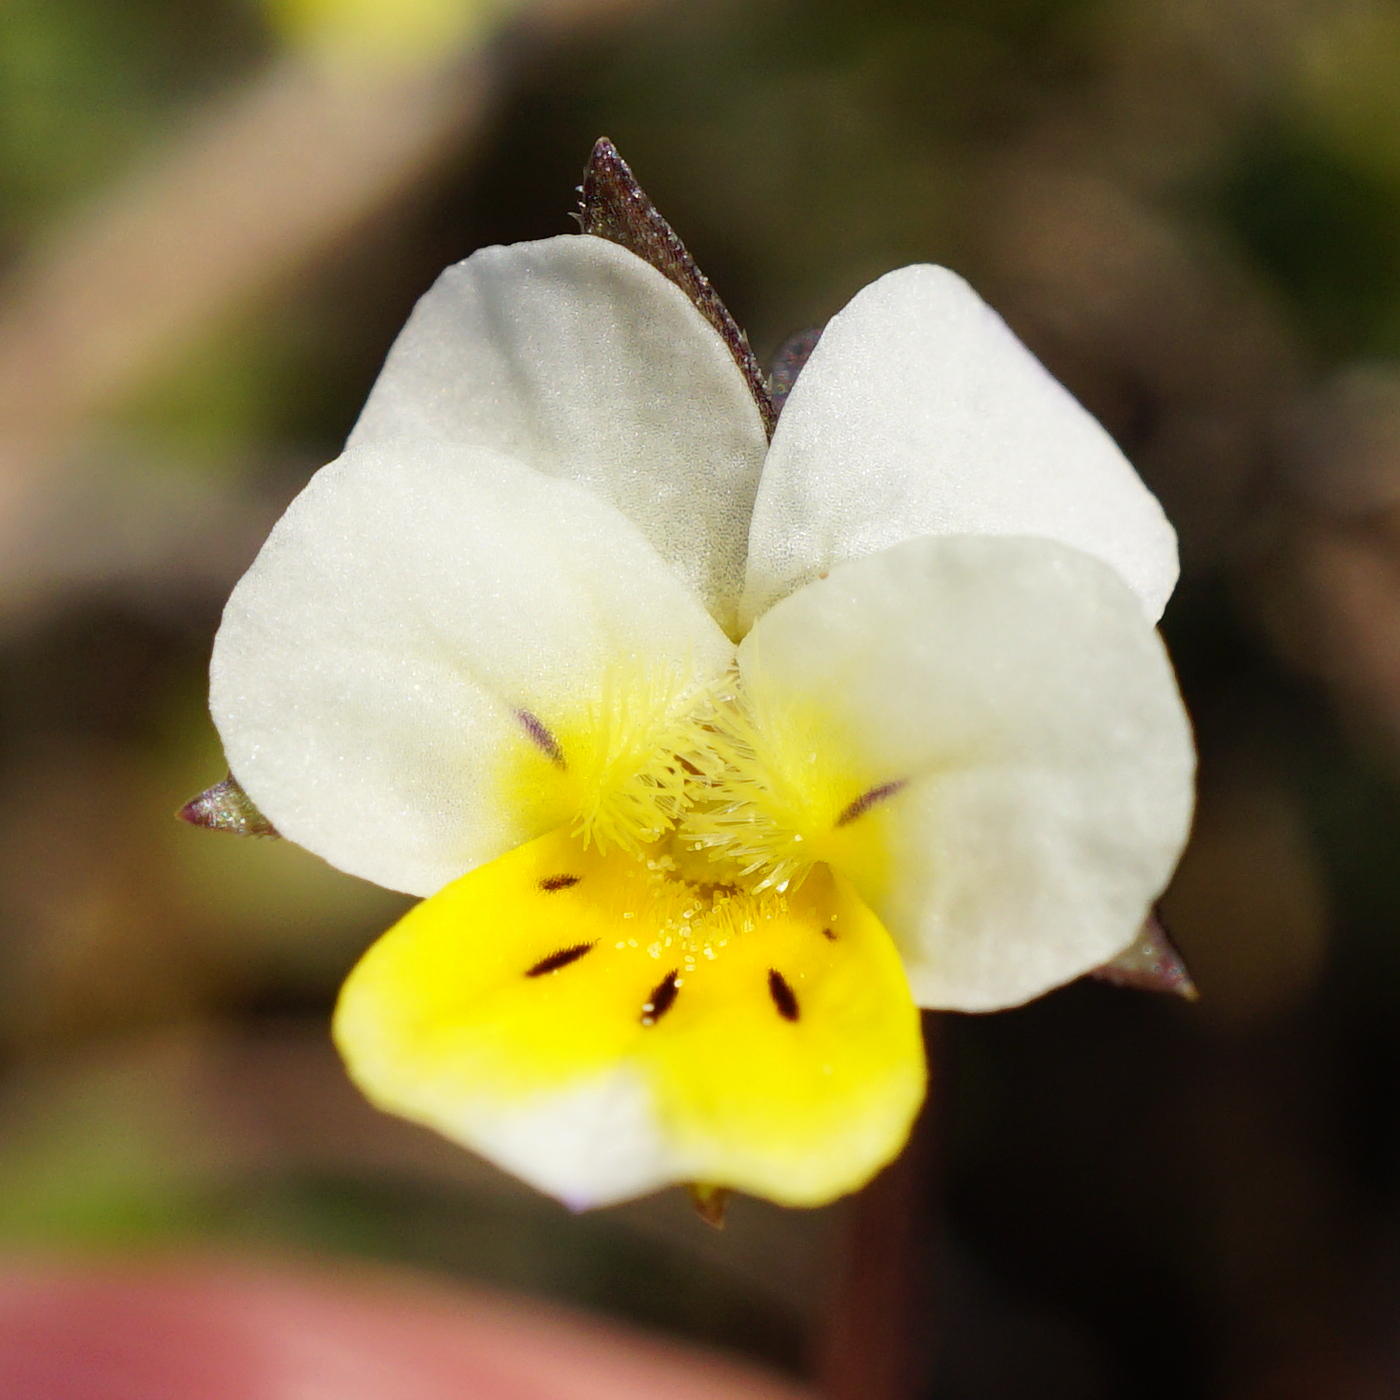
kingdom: Plantae
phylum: Tracheophyta
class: Magnoliopsida
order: Malpighiales
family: Violaceae
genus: Viola
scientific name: Viola kitaibeliana
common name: Dwarf pansy
